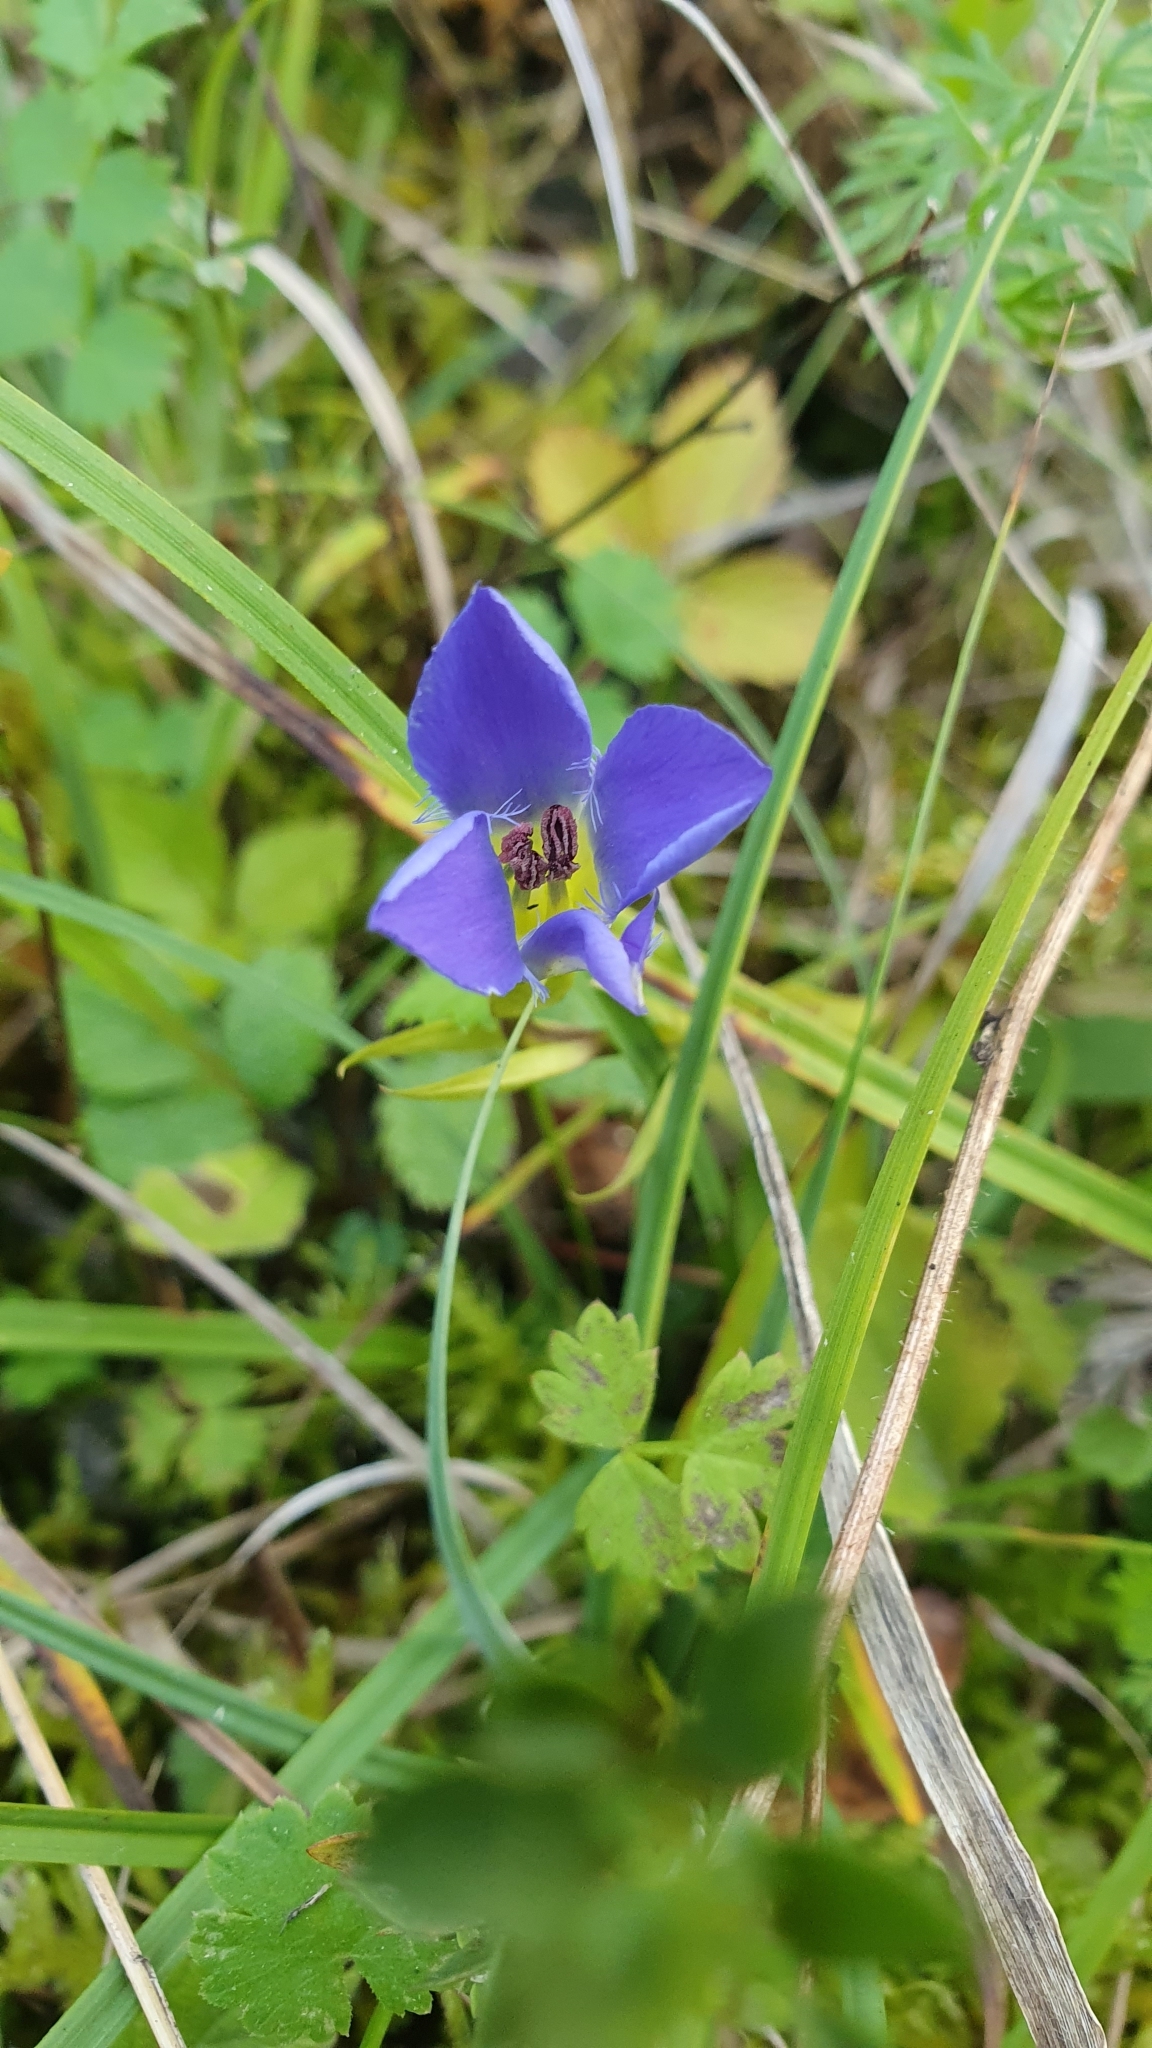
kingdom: Plantae
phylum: Tracheophyta
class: Magnoliopsida
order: Gentianales
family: Gentianaceae
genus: Gentianopsis
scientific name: Gentianopsis ciliata
